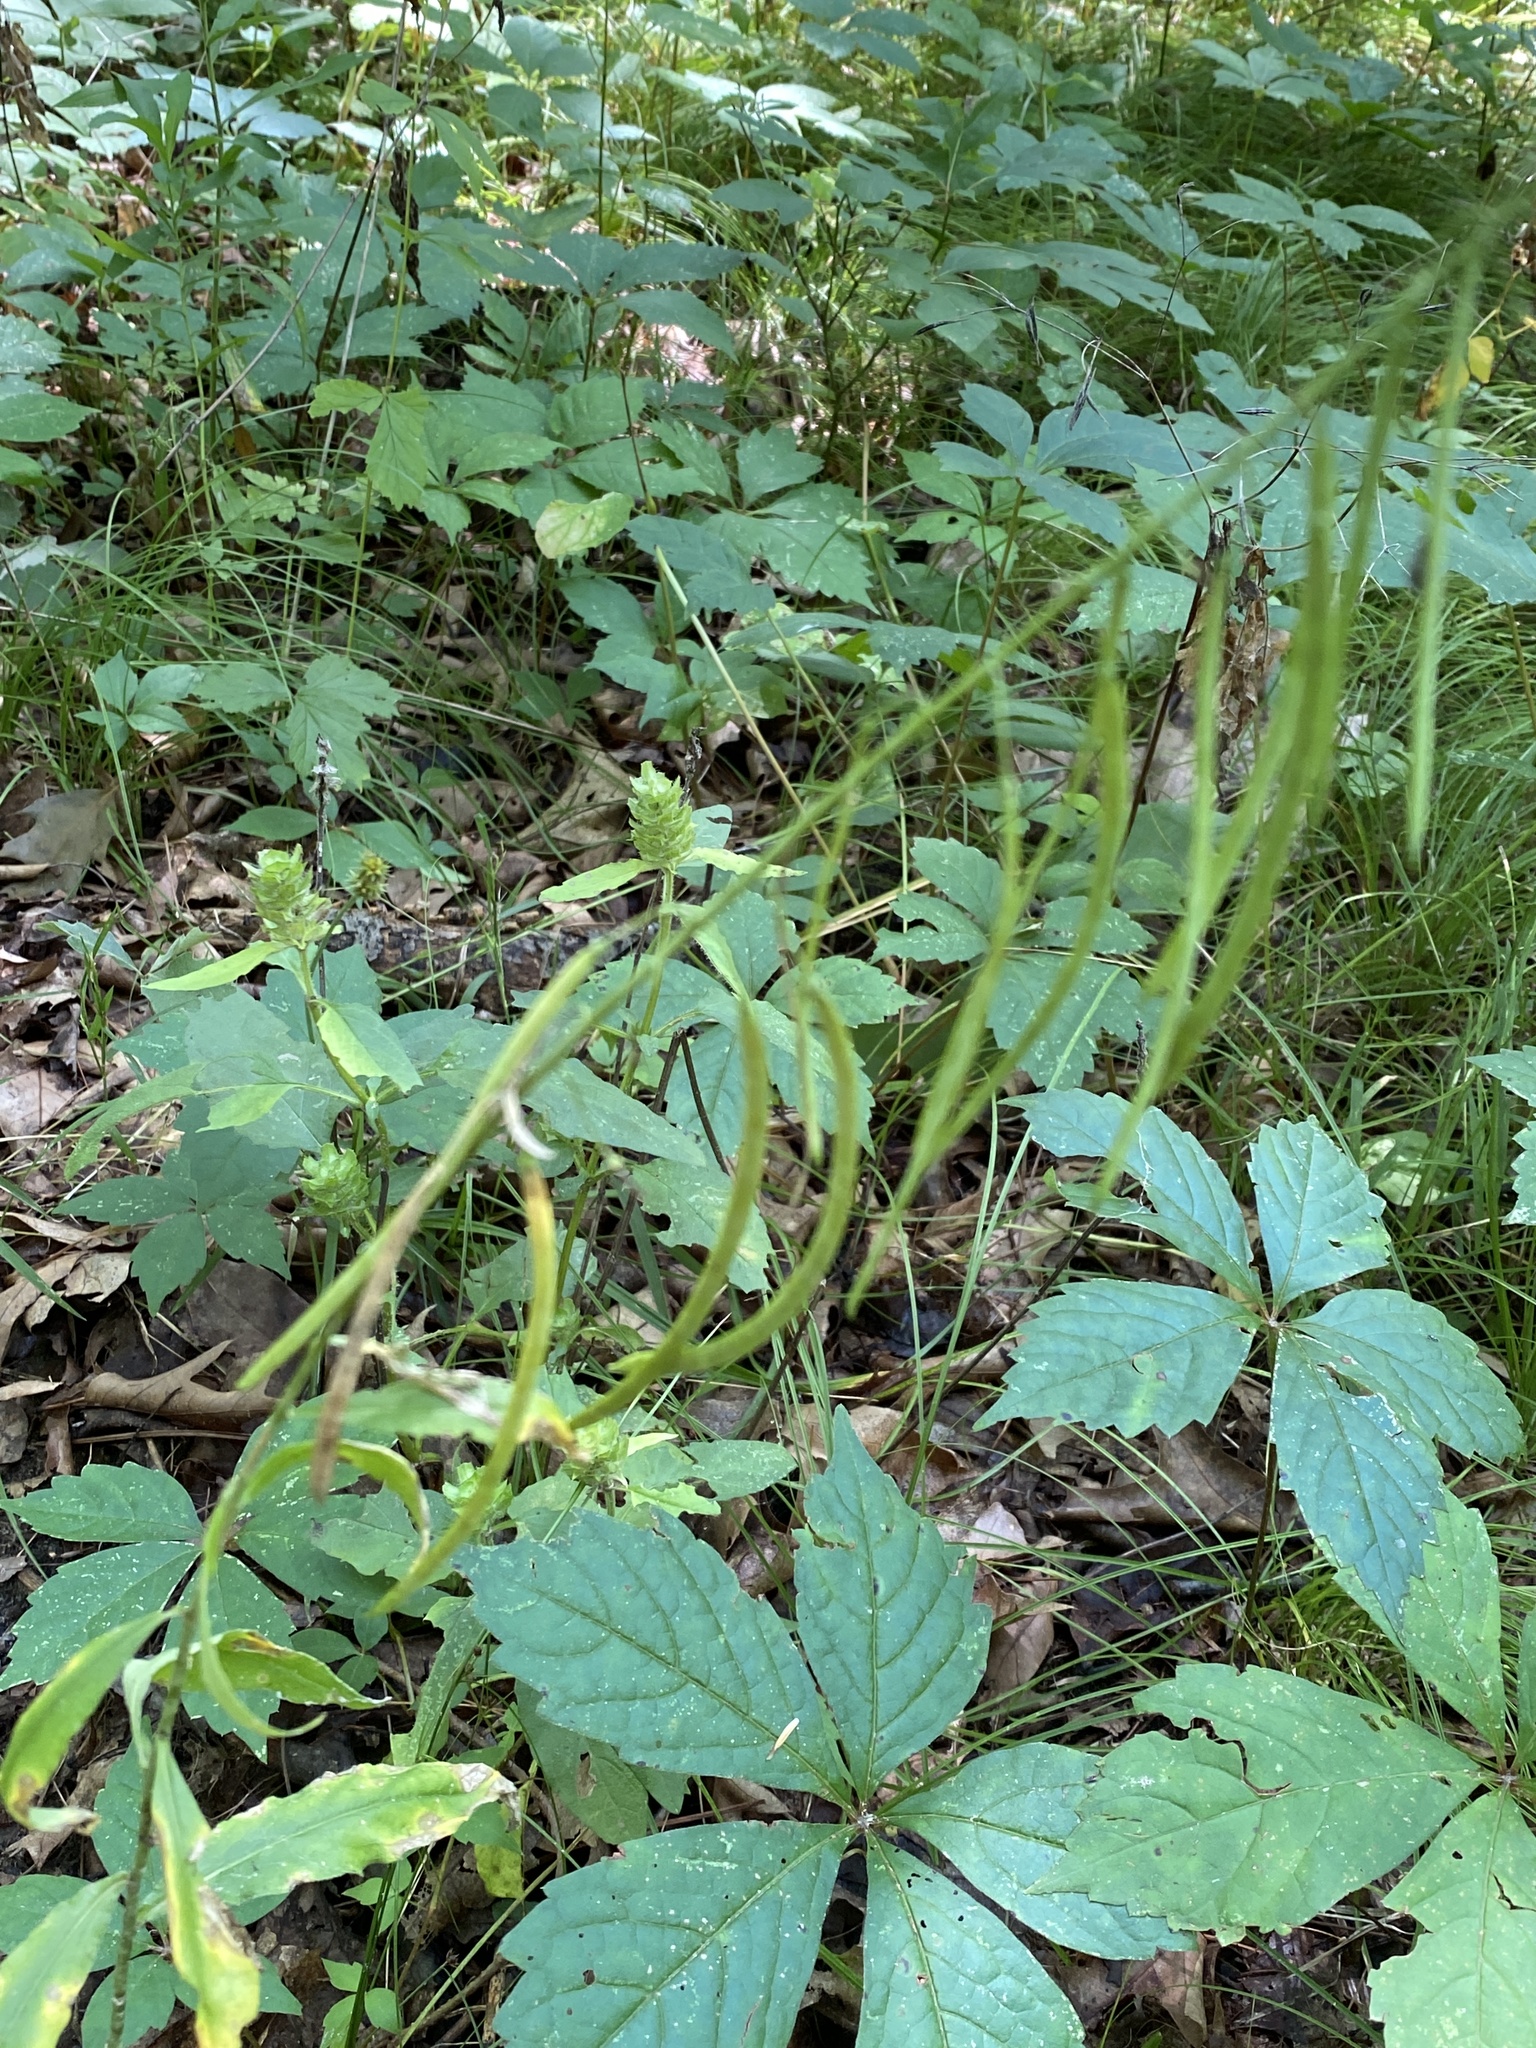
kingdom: Plantae
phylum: Tracheophyta
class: Magnoliopsida
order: Brassicales
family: Brassicaceae
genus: Borodinia
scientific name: Borodinia canadensis
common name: Sicklepod
